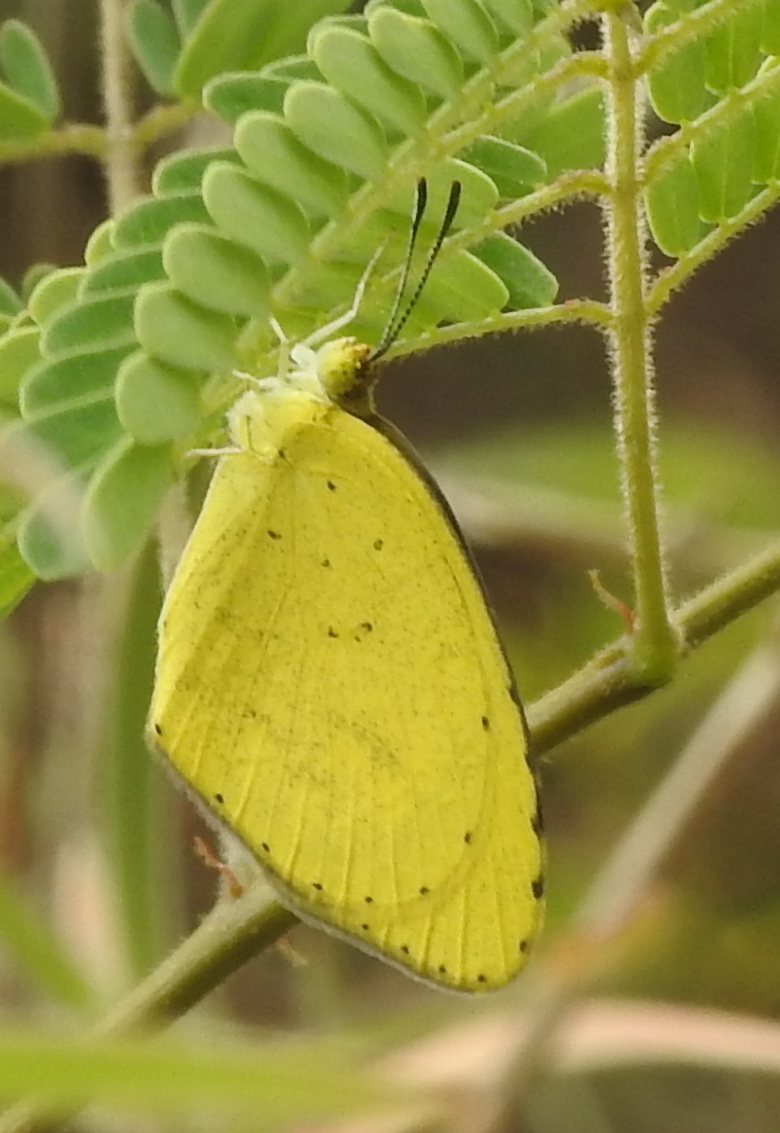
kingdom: Animalia
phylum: Arthropoda
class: Insecta
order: Lepidoptera
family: Pieridae
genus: Eurema
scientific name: Eurema brigitta
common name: Small grass yellow
